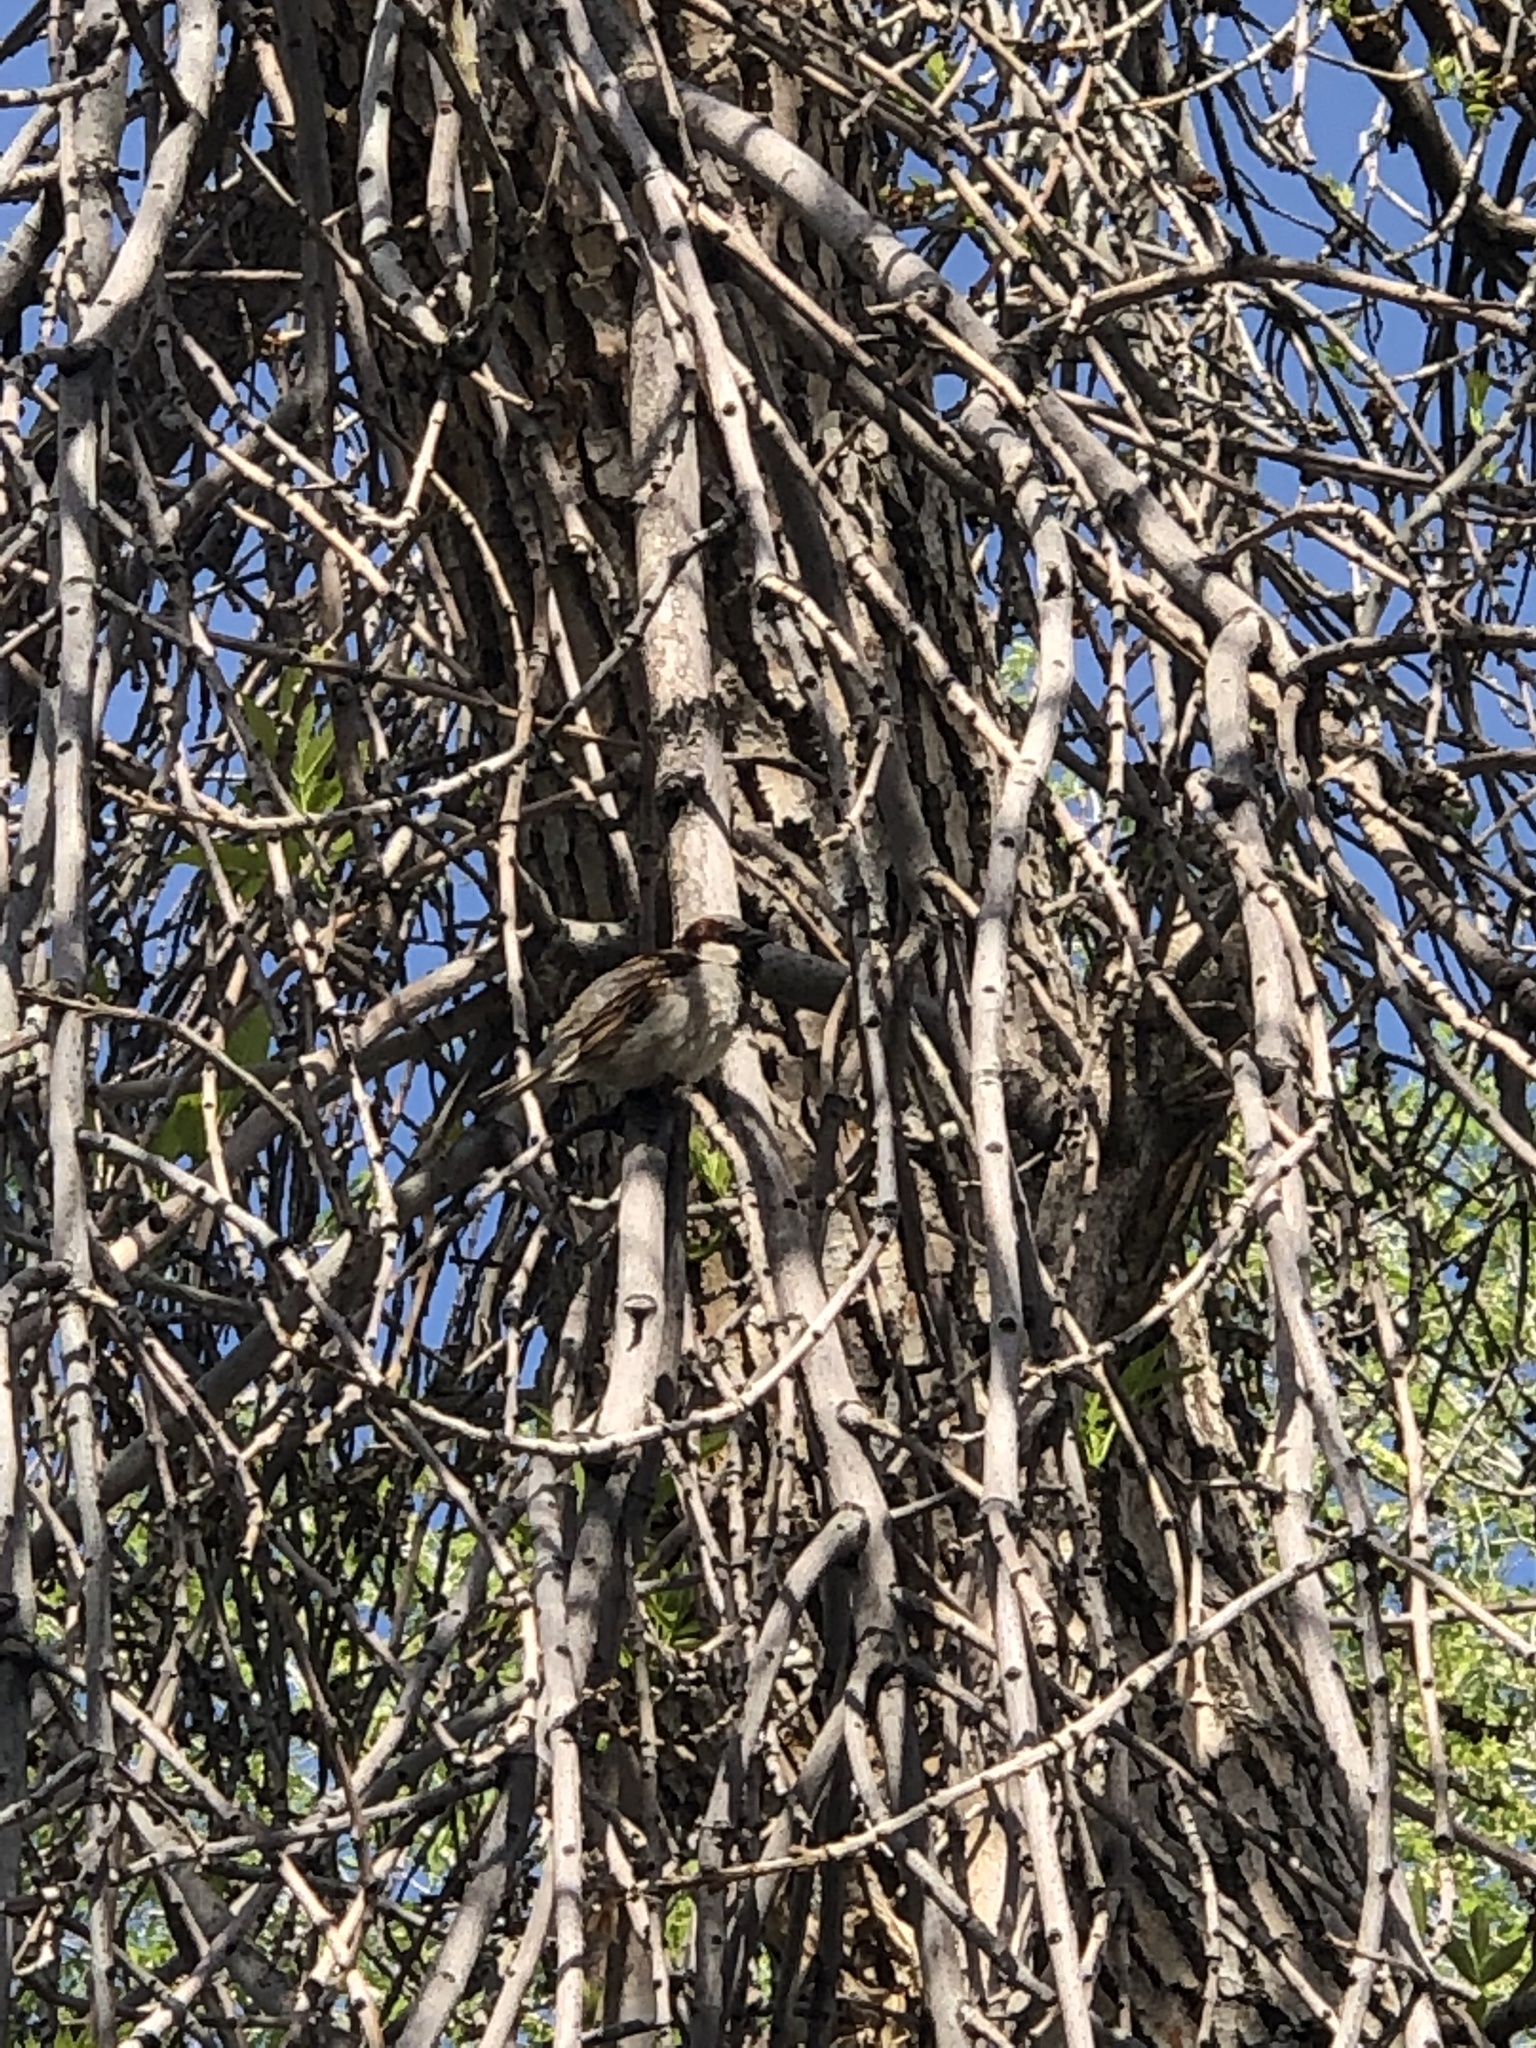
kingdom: Animalia
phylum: Chordata
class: Aves
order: Passeriformes
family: Passeridae
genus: Passer
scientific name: Passer domesticus
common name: House sparrow
